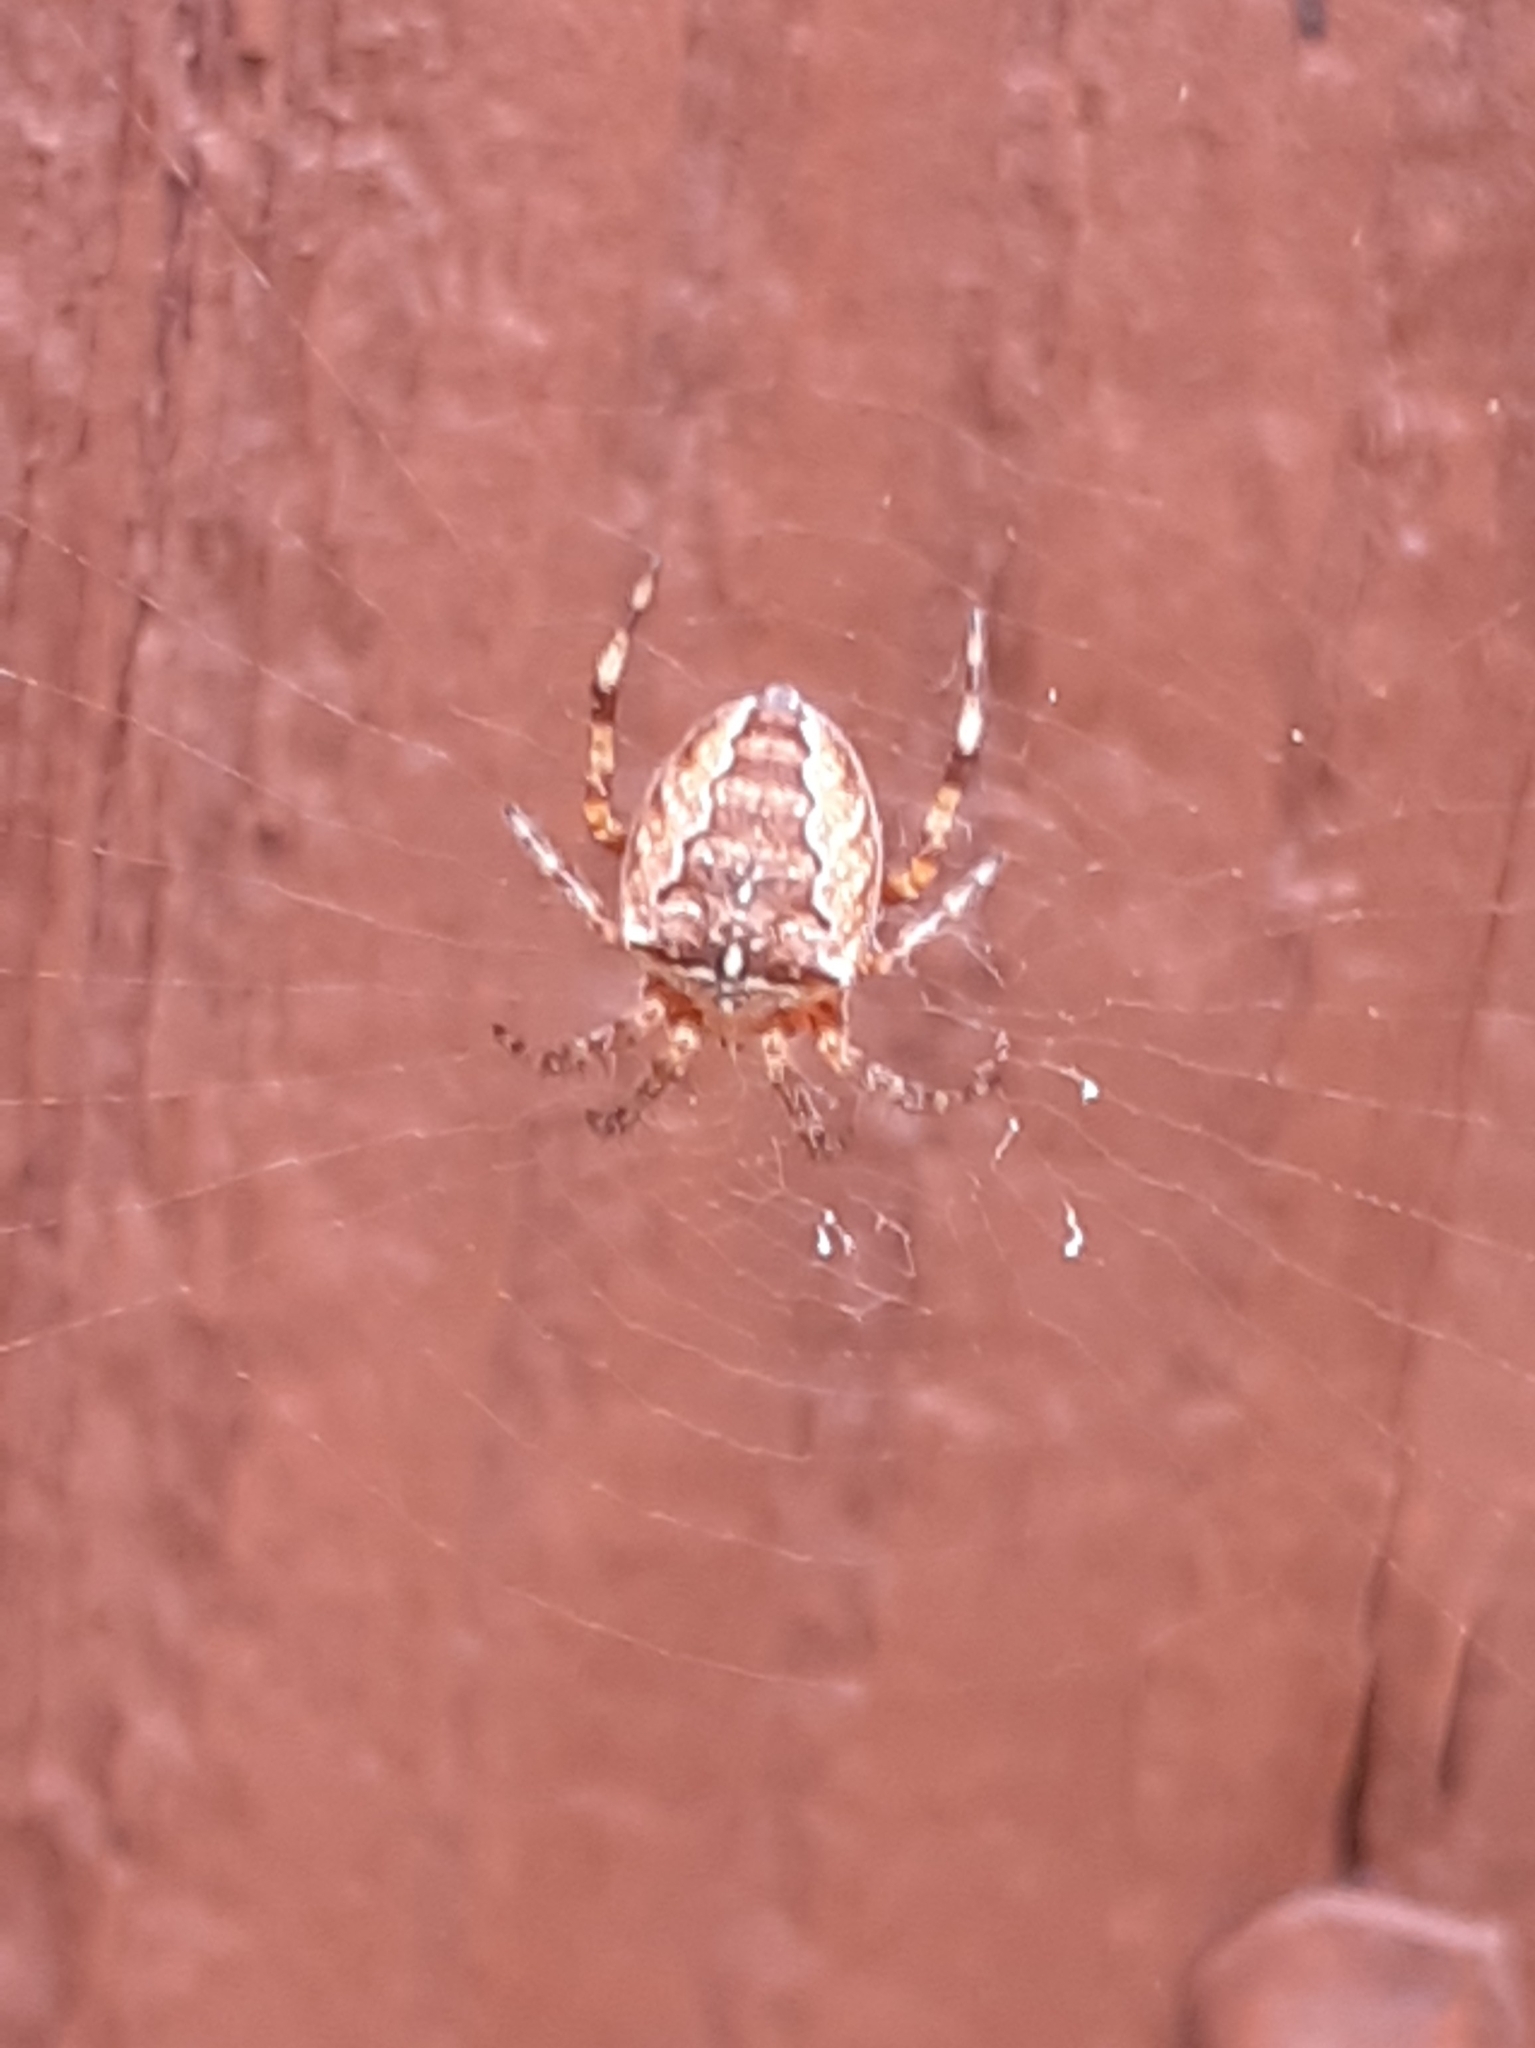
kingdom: Animalia
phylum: Arthropoda
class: Arachnida
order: Araneae
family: Araneidae
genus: Araneus
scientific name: Araneus diadematus
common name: Cross orbweaver
